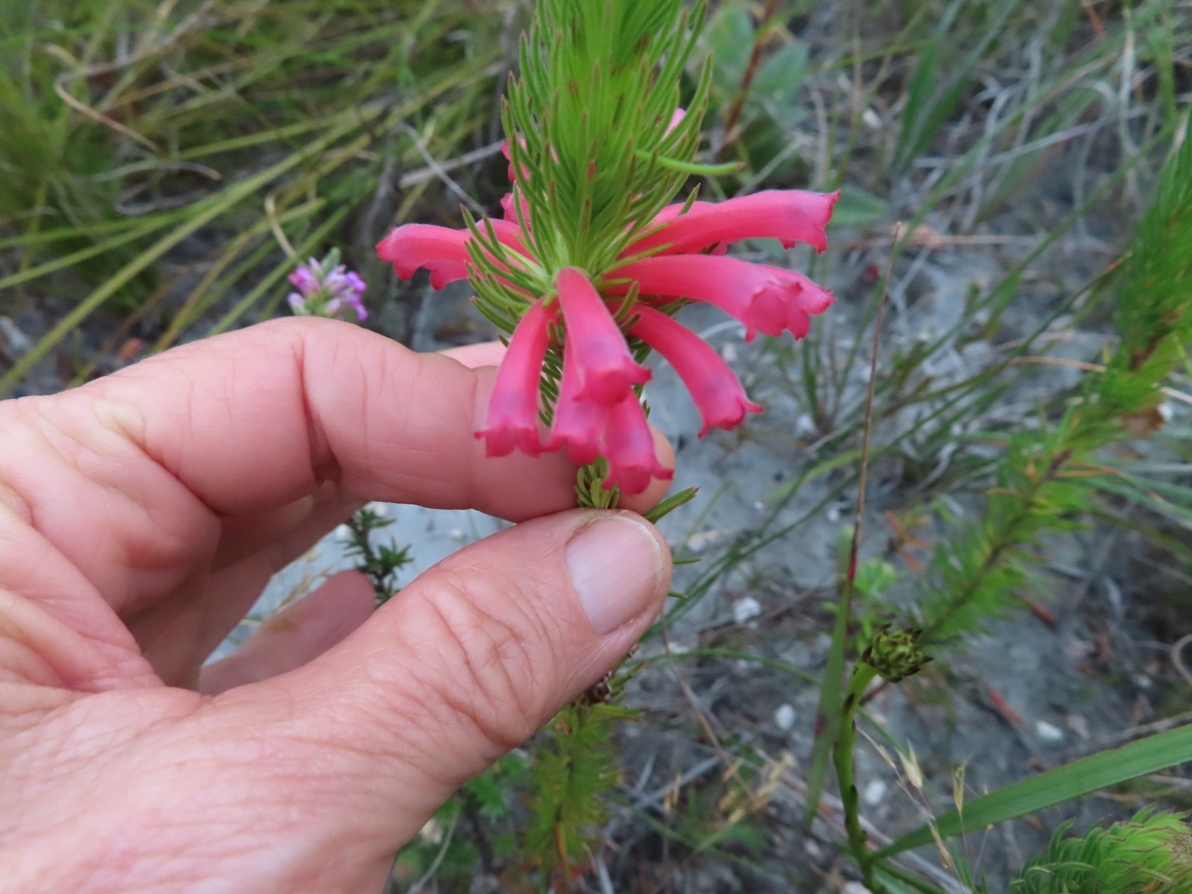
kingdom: Plantae
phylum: Tracheophyta
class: Magnoliopsida
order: Ericales
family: Ericaceae
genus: Erica
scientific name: Erica vestita
